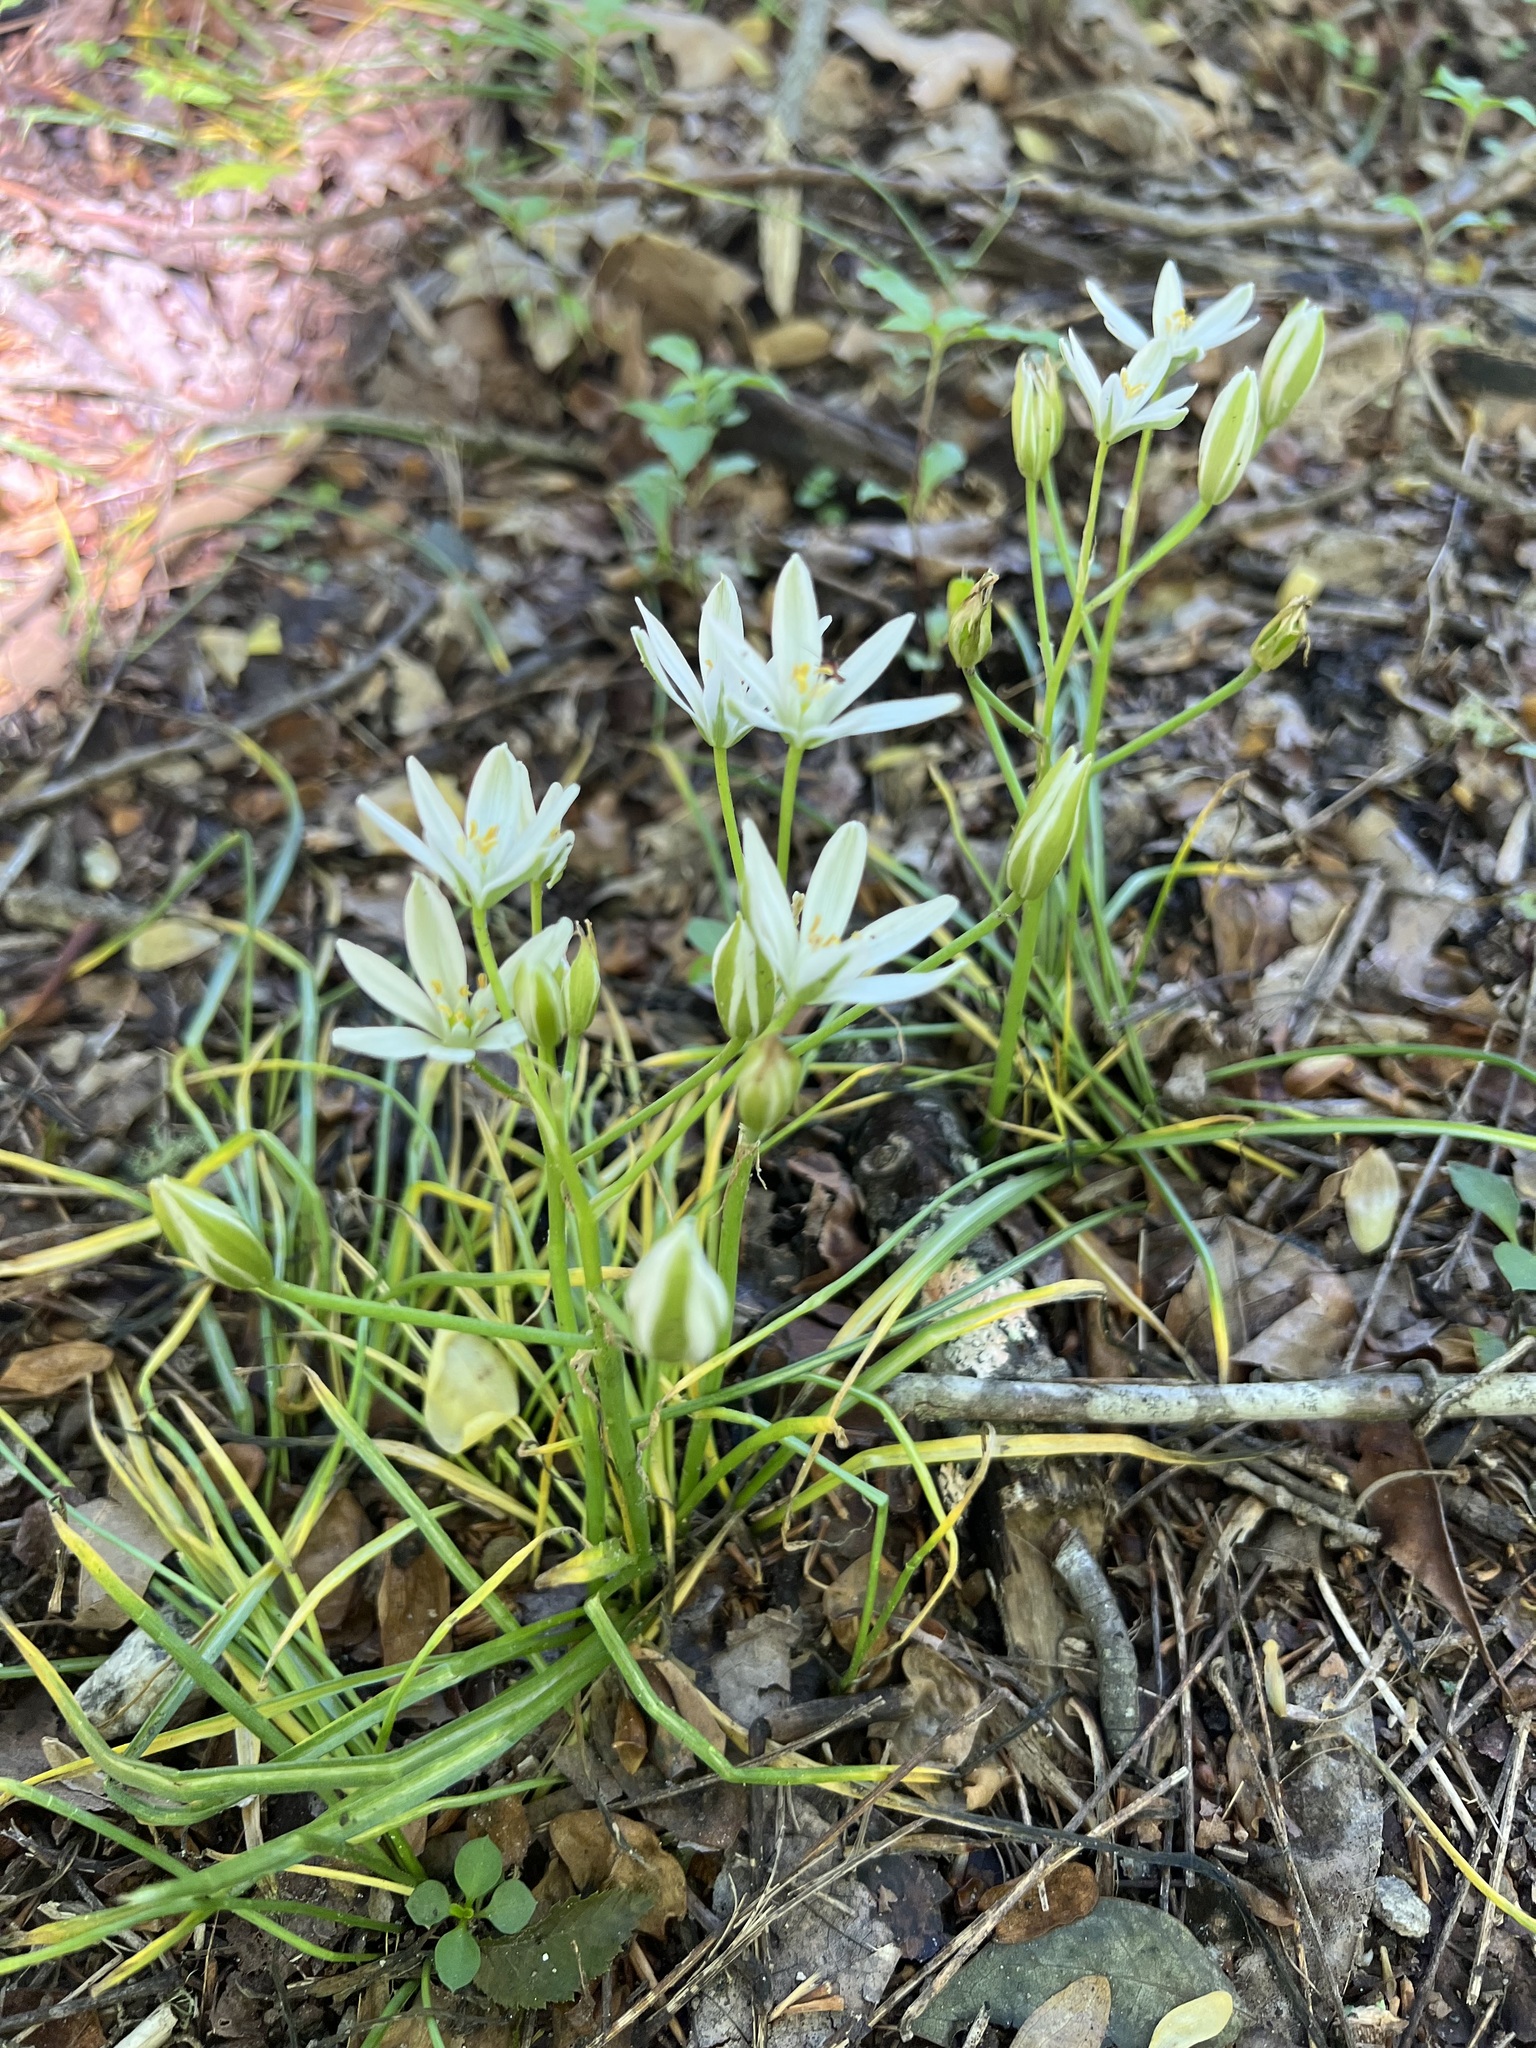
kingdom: Plantae
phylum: Tracheophyta
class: Liliopsida
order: Asparagales
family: Asparagaceae
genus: Ornithogalum
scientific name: Ornithogalum umbellatum
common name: Garden star-of-bethlehem
